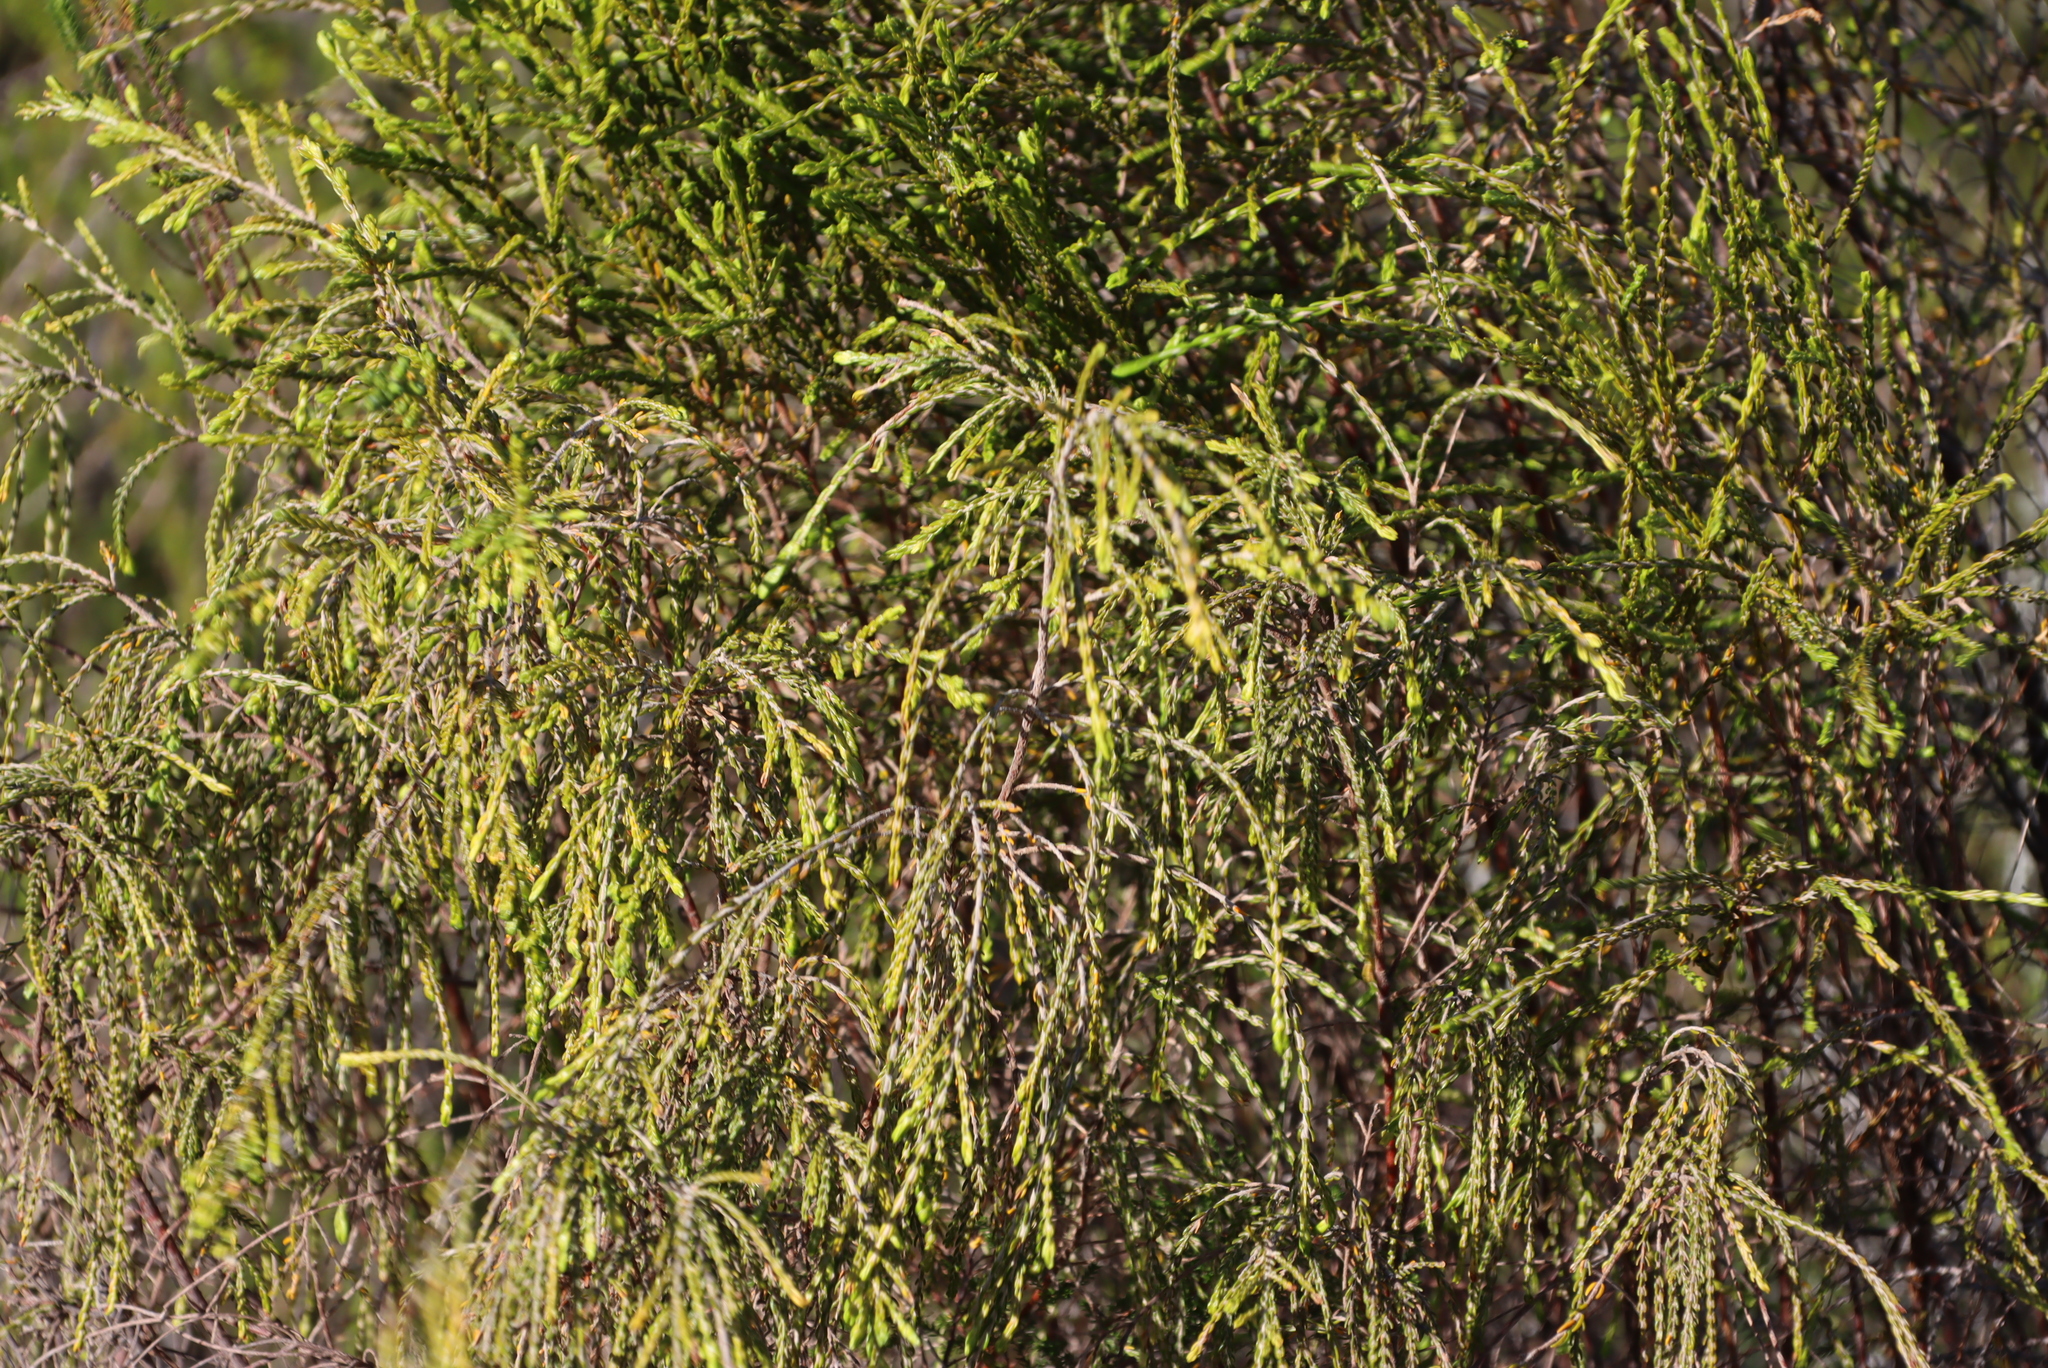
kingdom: Plantae
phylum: Tracheophyta
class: Magnoliopsida
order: Malvales
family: Thymelaeaceae
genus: Passerina
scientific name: Passerina falcifolia
